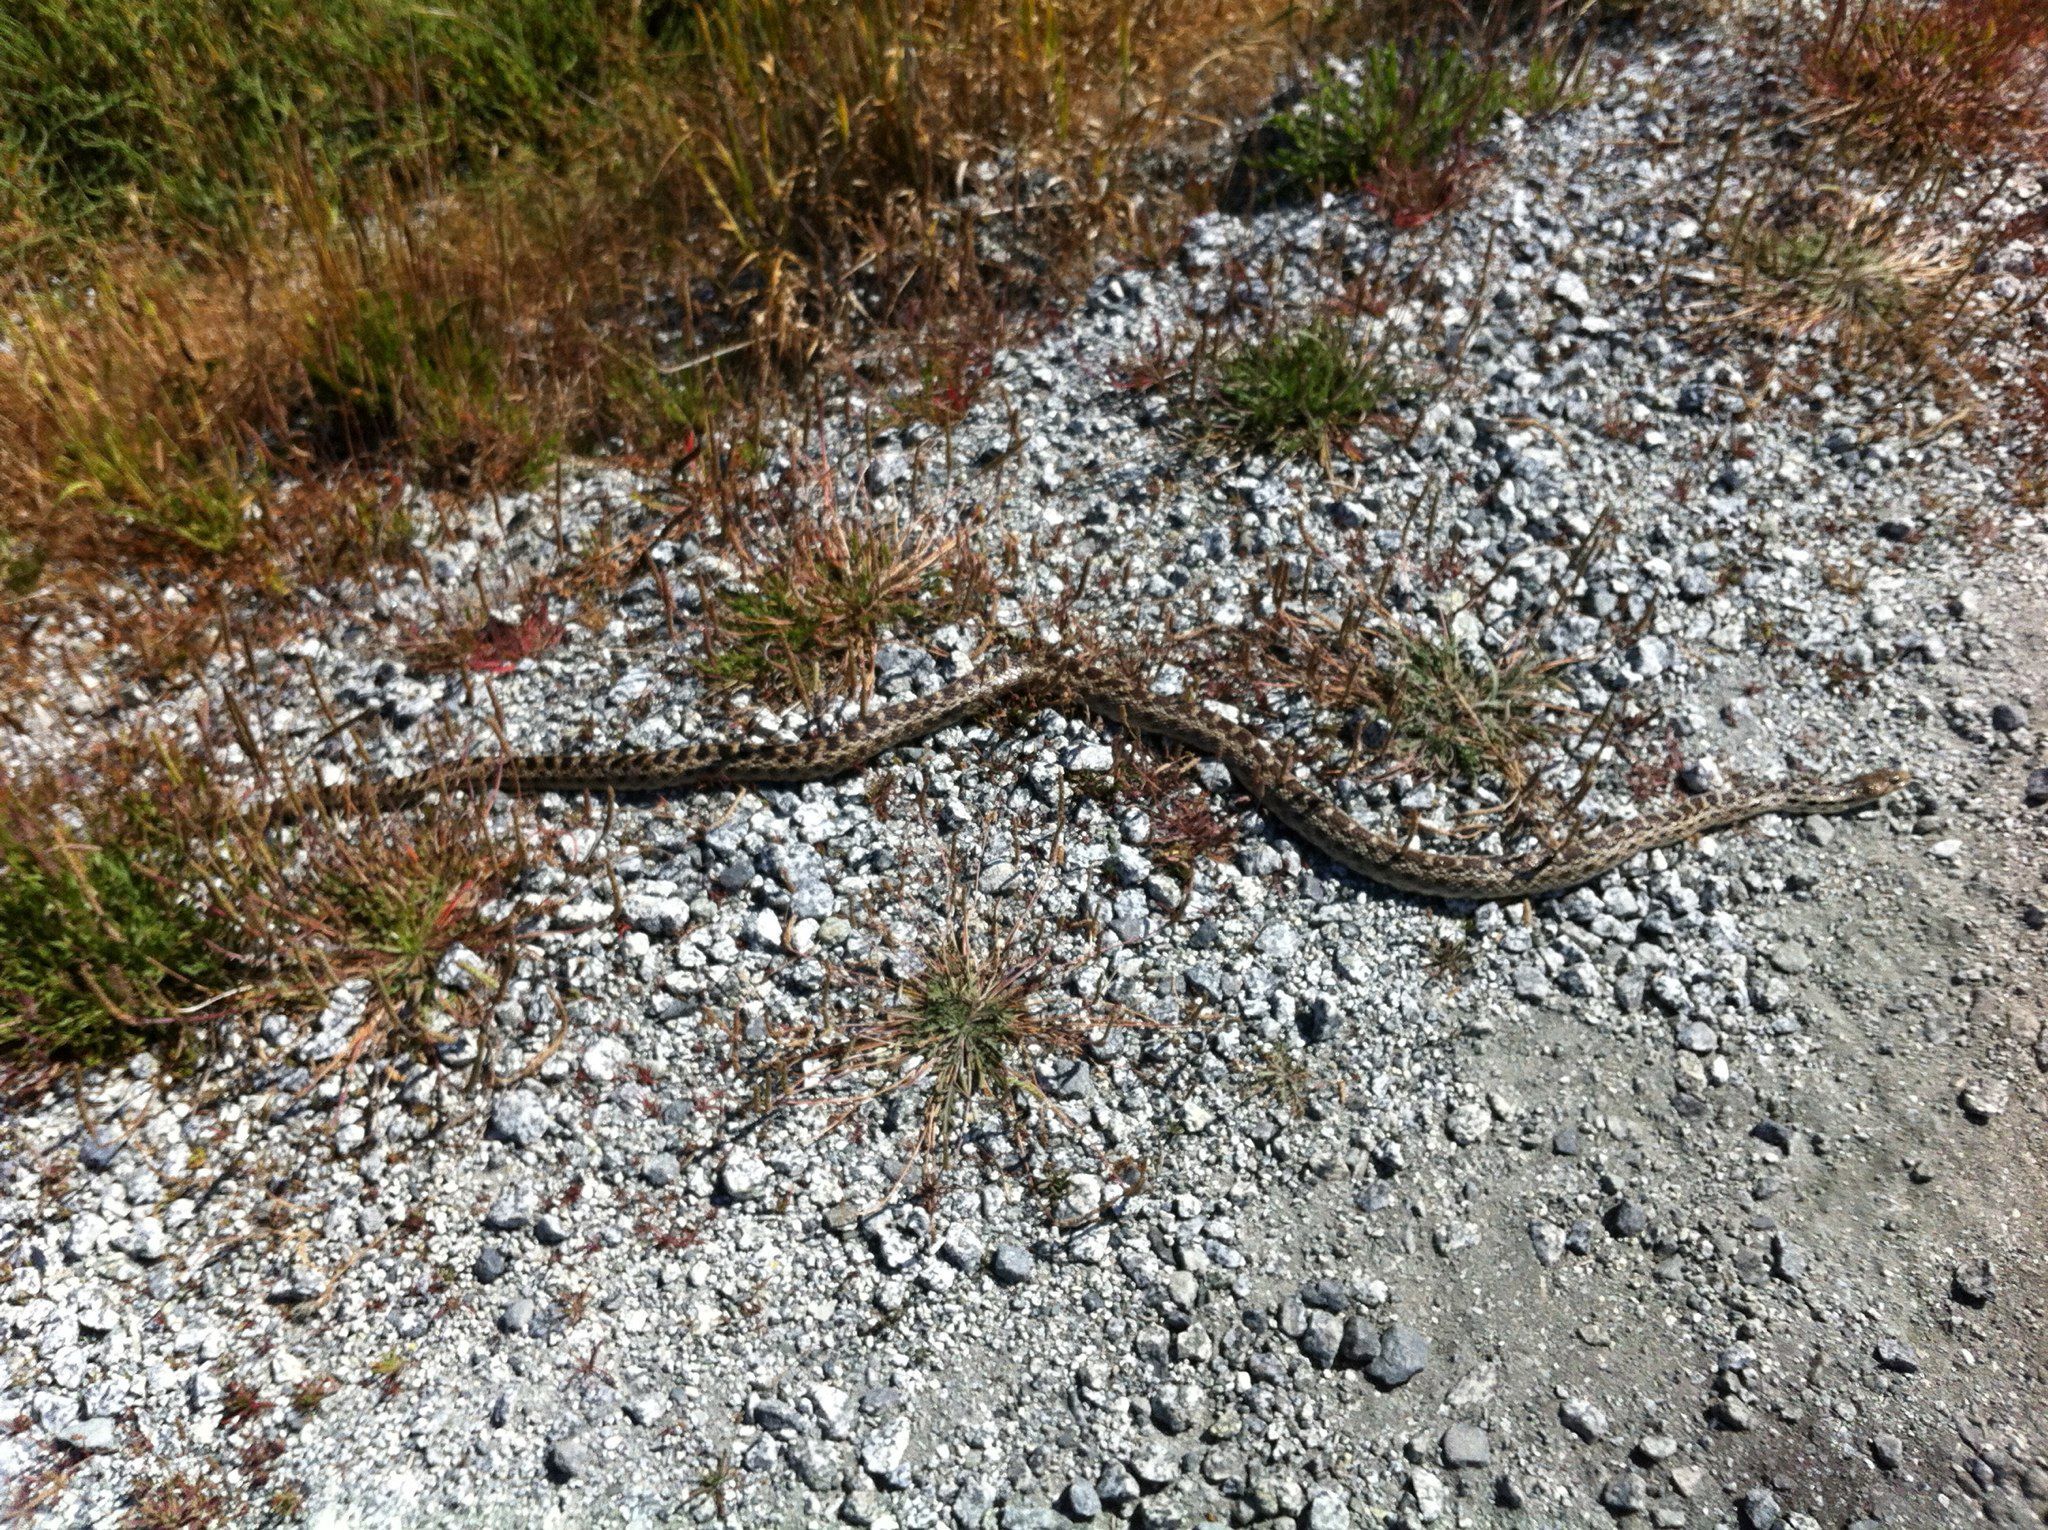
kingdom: Animalia
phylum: Chordata
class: Squamata
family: Colubridae
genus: Pituophis
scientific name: Pituophis catenifer
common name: Gopher snake
